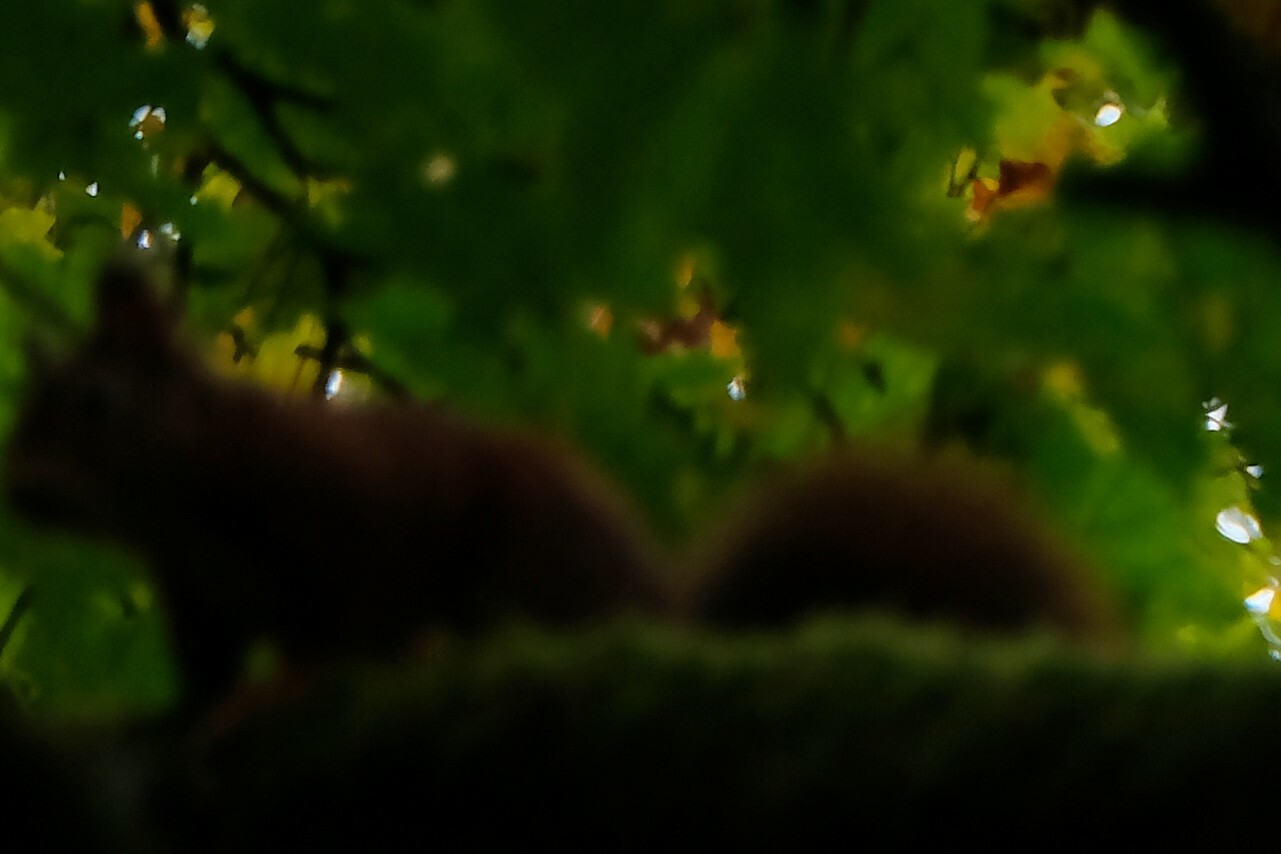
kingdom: Animalia
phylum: Chordata
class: Mammalia
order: Rodentia
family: Sciuridae
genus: Sciurus
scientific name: Sciurus vulgaris
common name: Eurasian red squirrel
